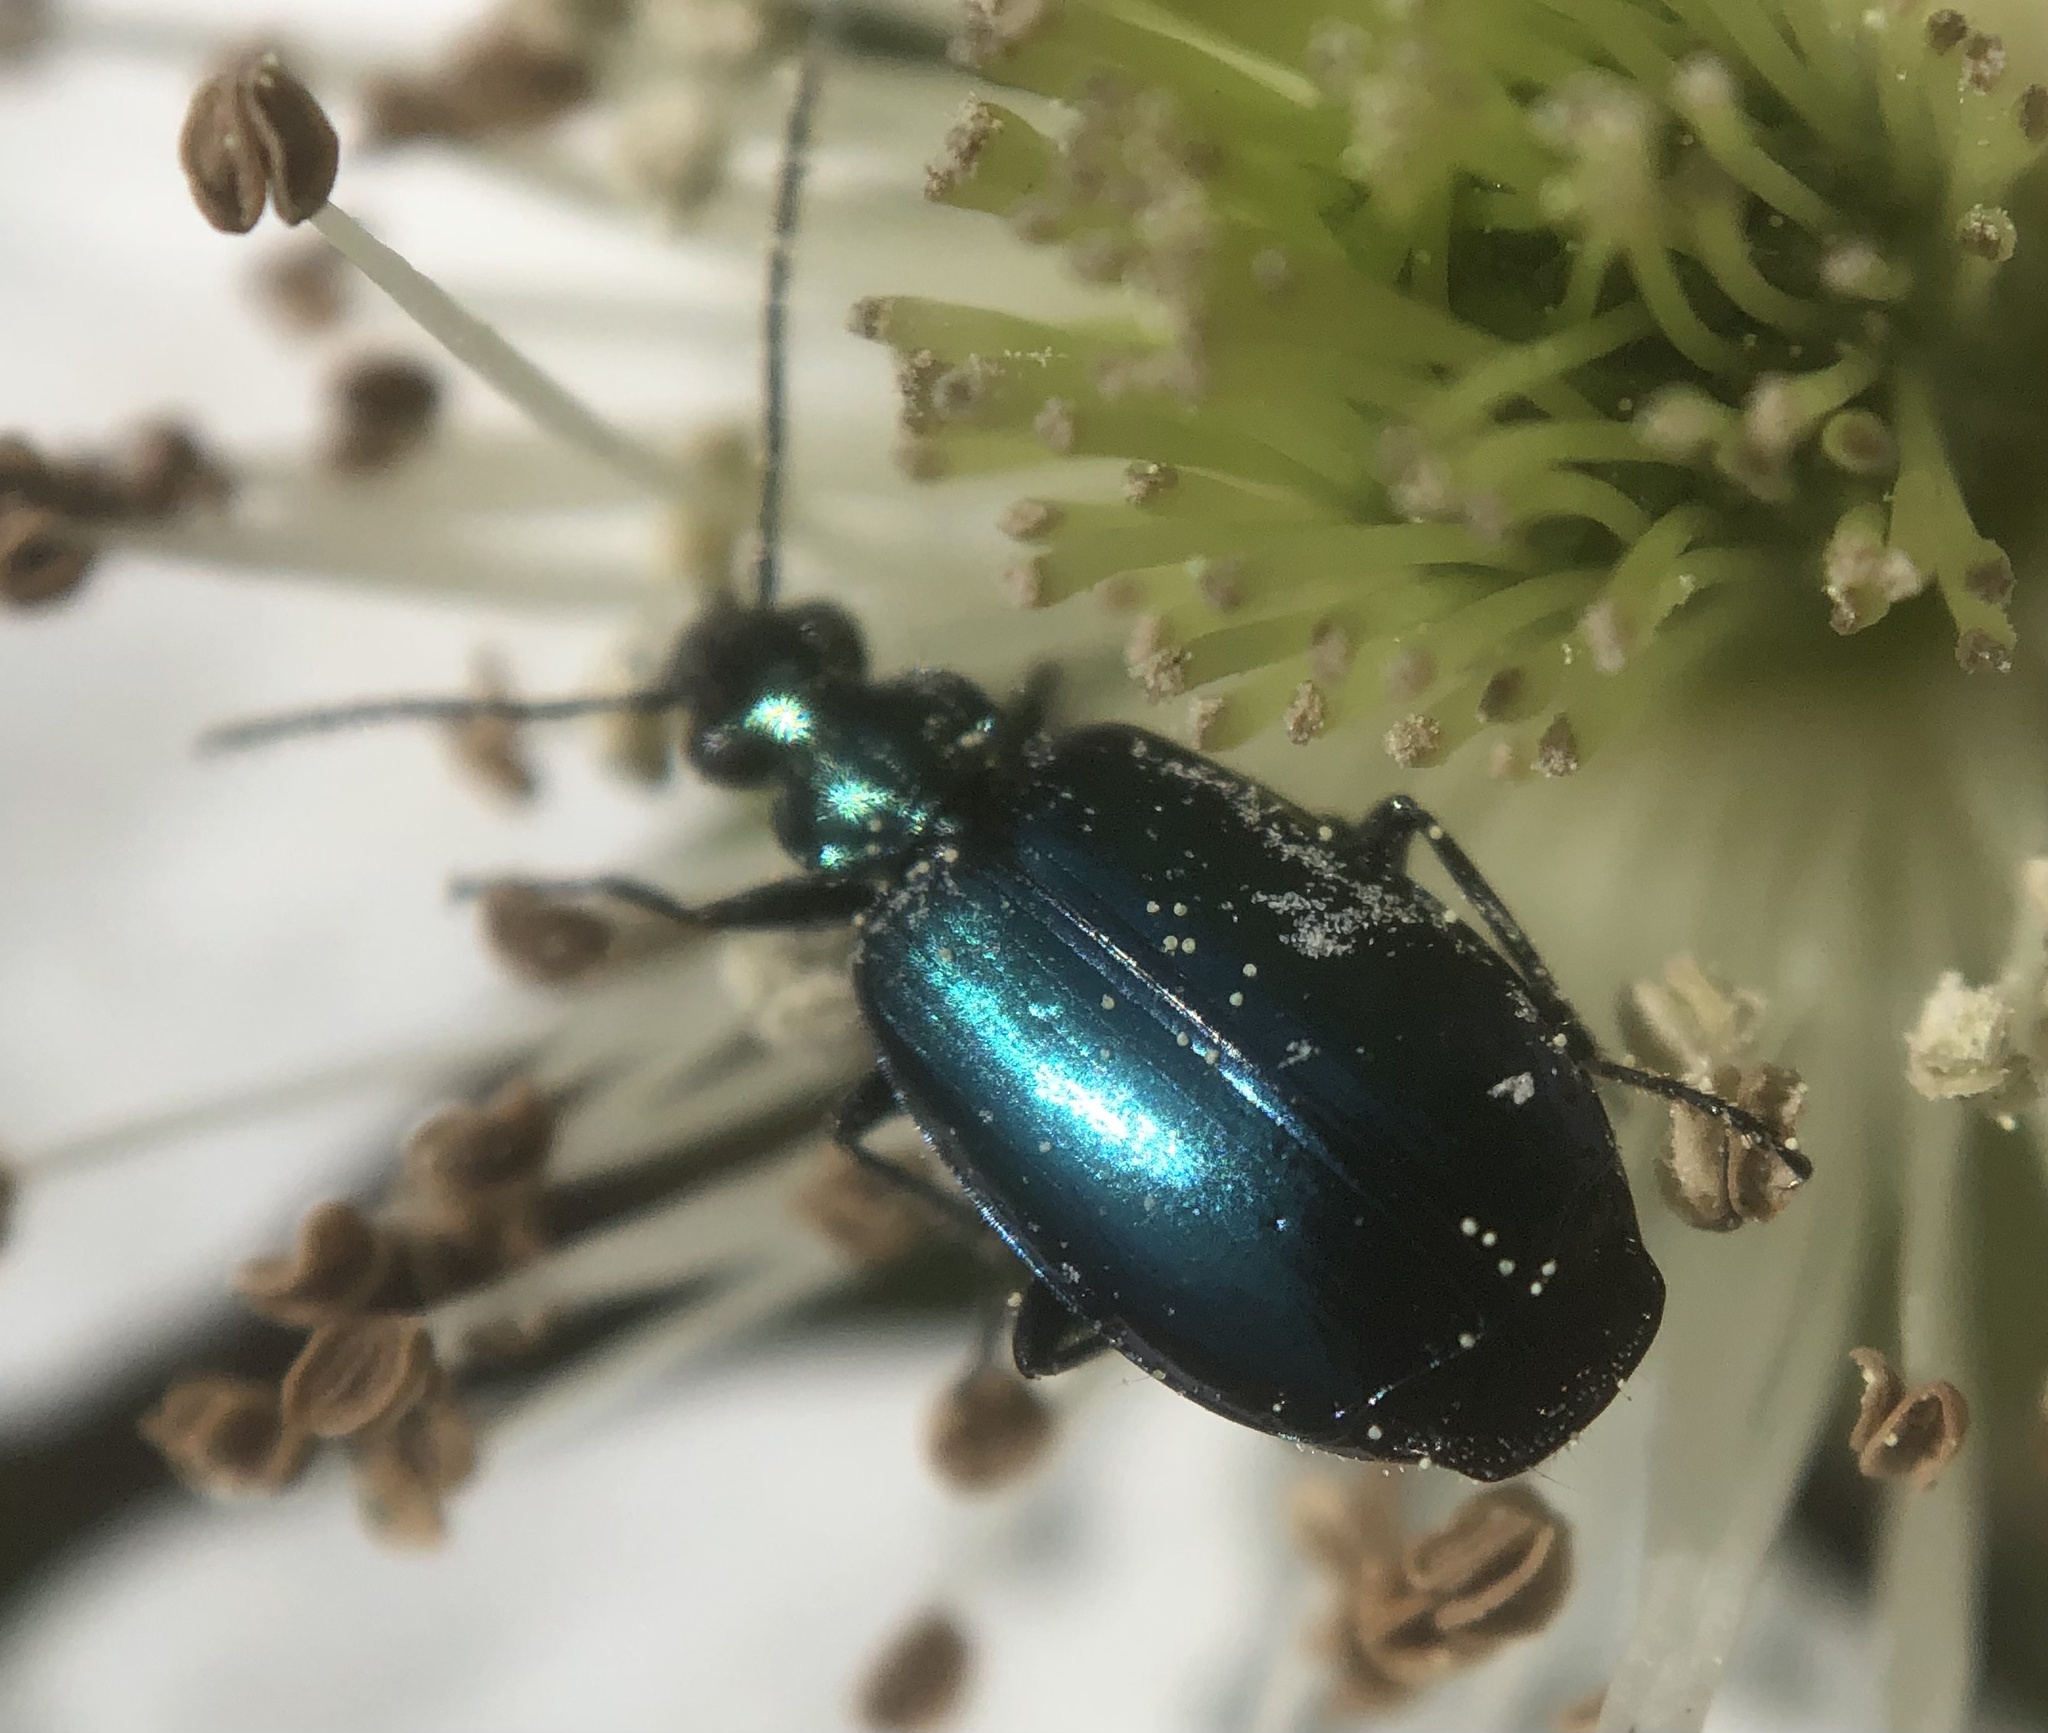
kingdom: Animalia
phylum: Arthropoda
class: Insecta
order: Coleoptera
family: Carabidae
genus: Lebia
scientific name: Lebia viridis
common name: Flower lebia beetle
